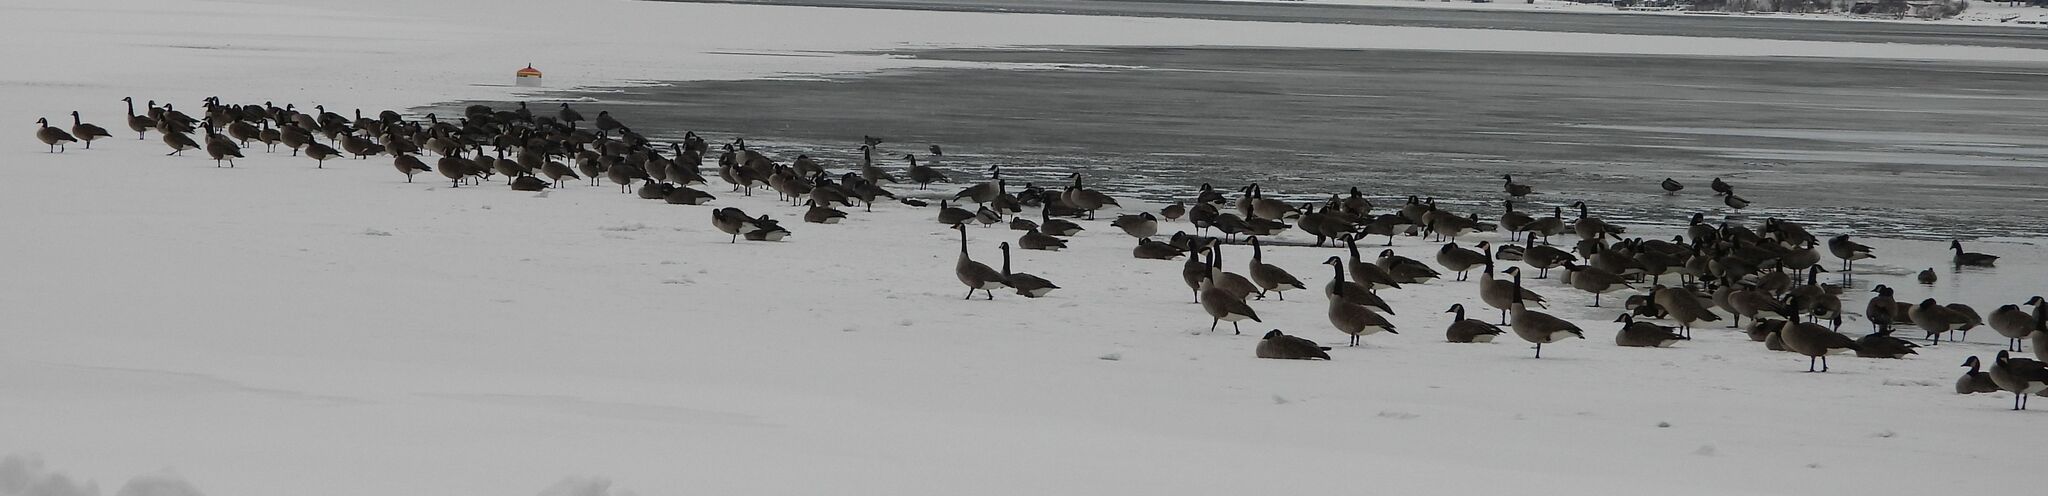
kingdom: Animalia
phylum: Chordata
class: Aves
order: Anseriformes
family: Anatidae
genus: Branta
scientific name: Branta canadensis
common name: Canada goose
